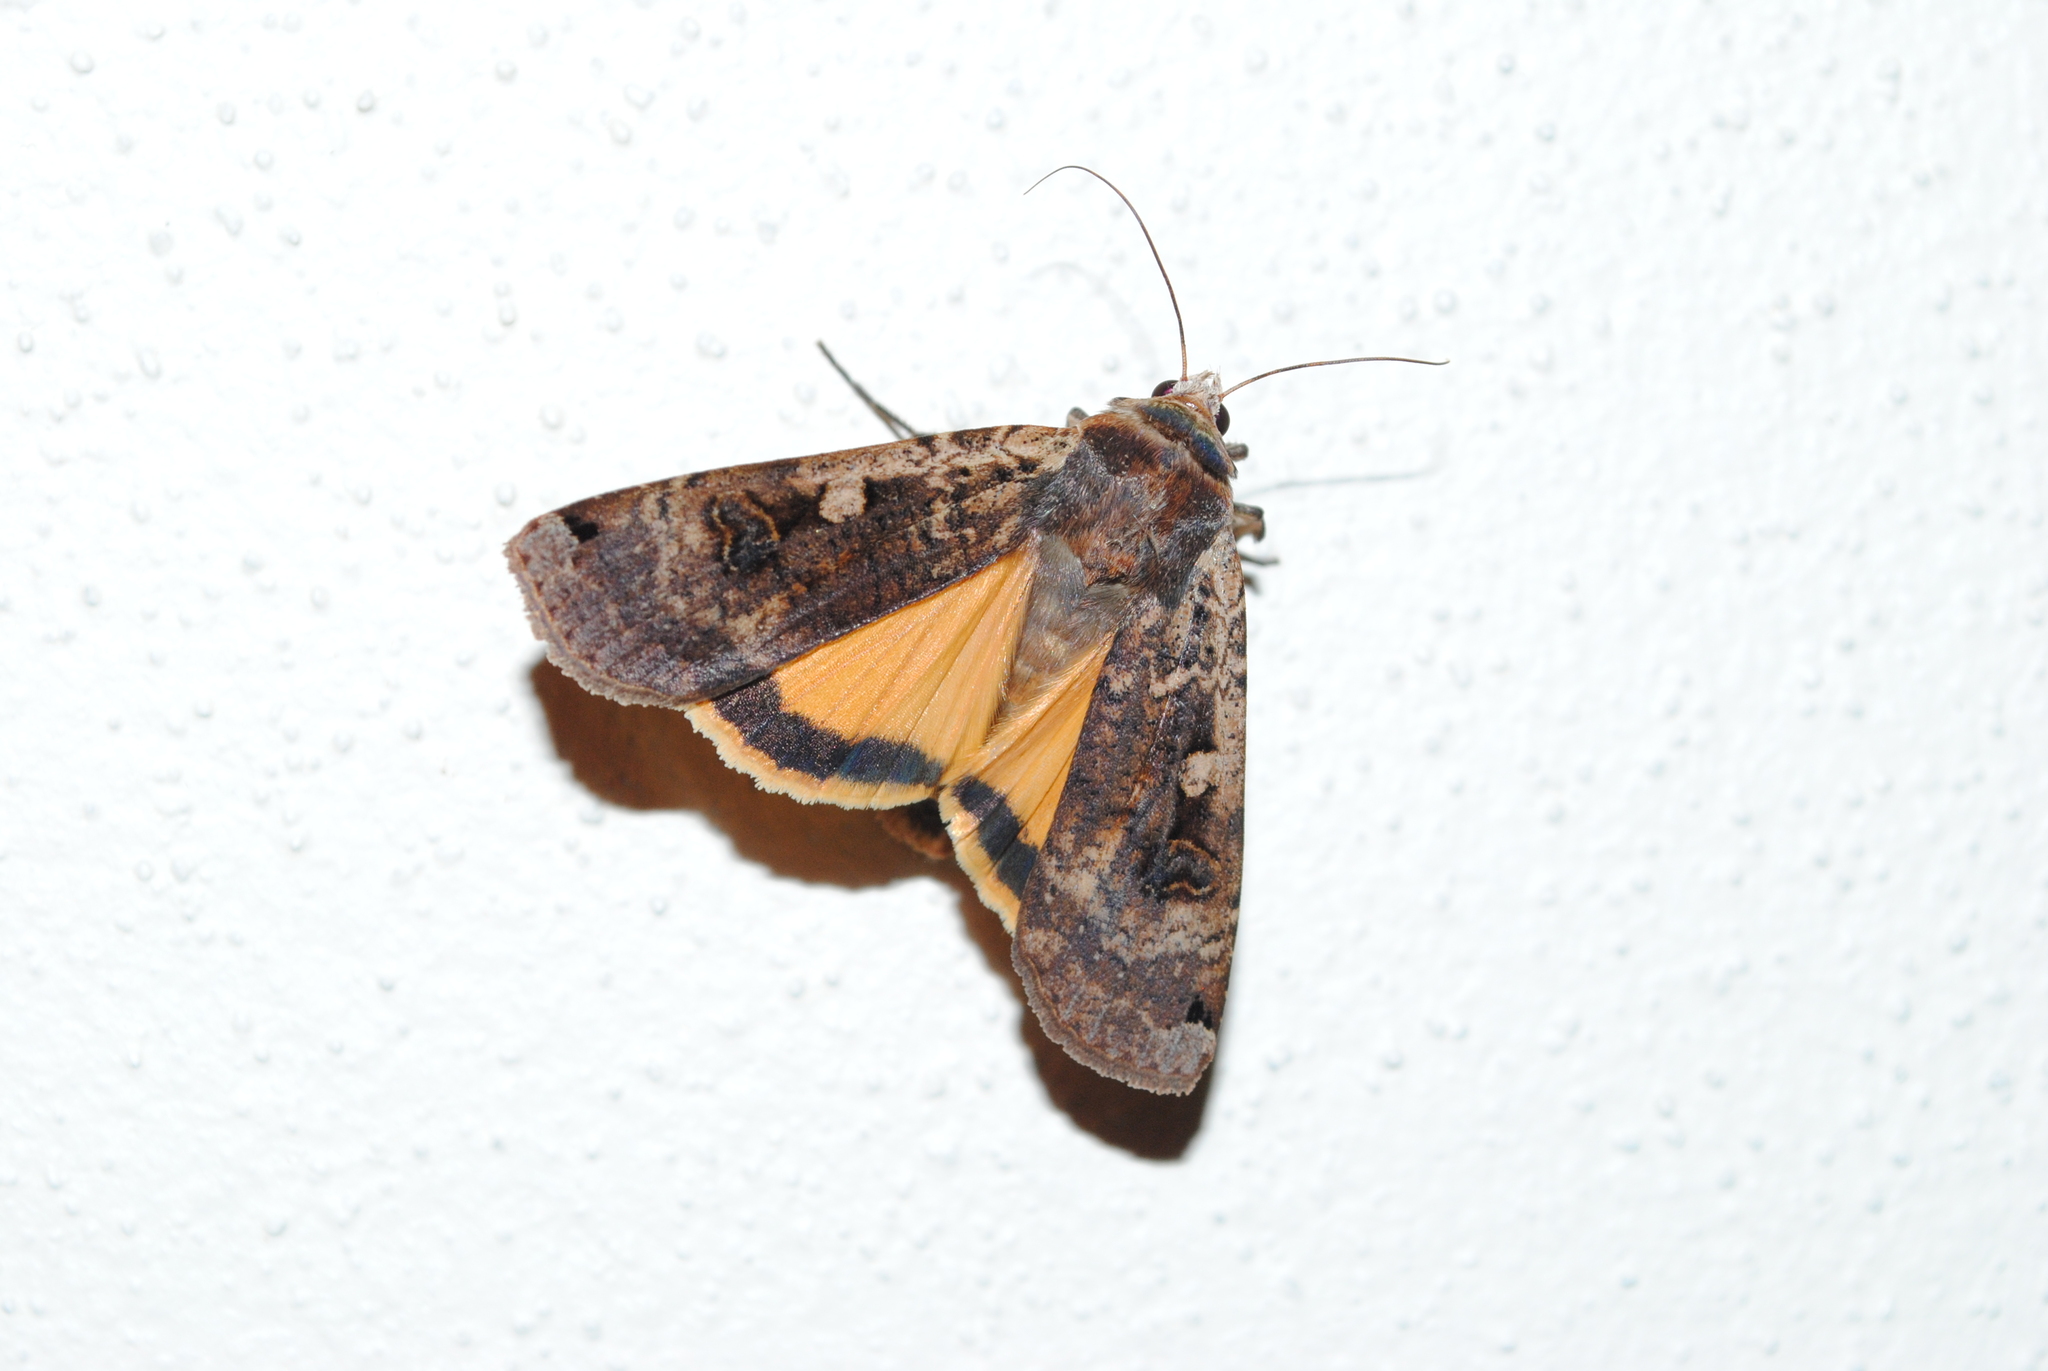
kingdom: Animalia
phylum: Arthropoda
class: Insecta
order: Lepidoptera
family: Noctuidae
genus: Noctua
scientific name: Noctua pronuba
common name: Large yellow underwing
